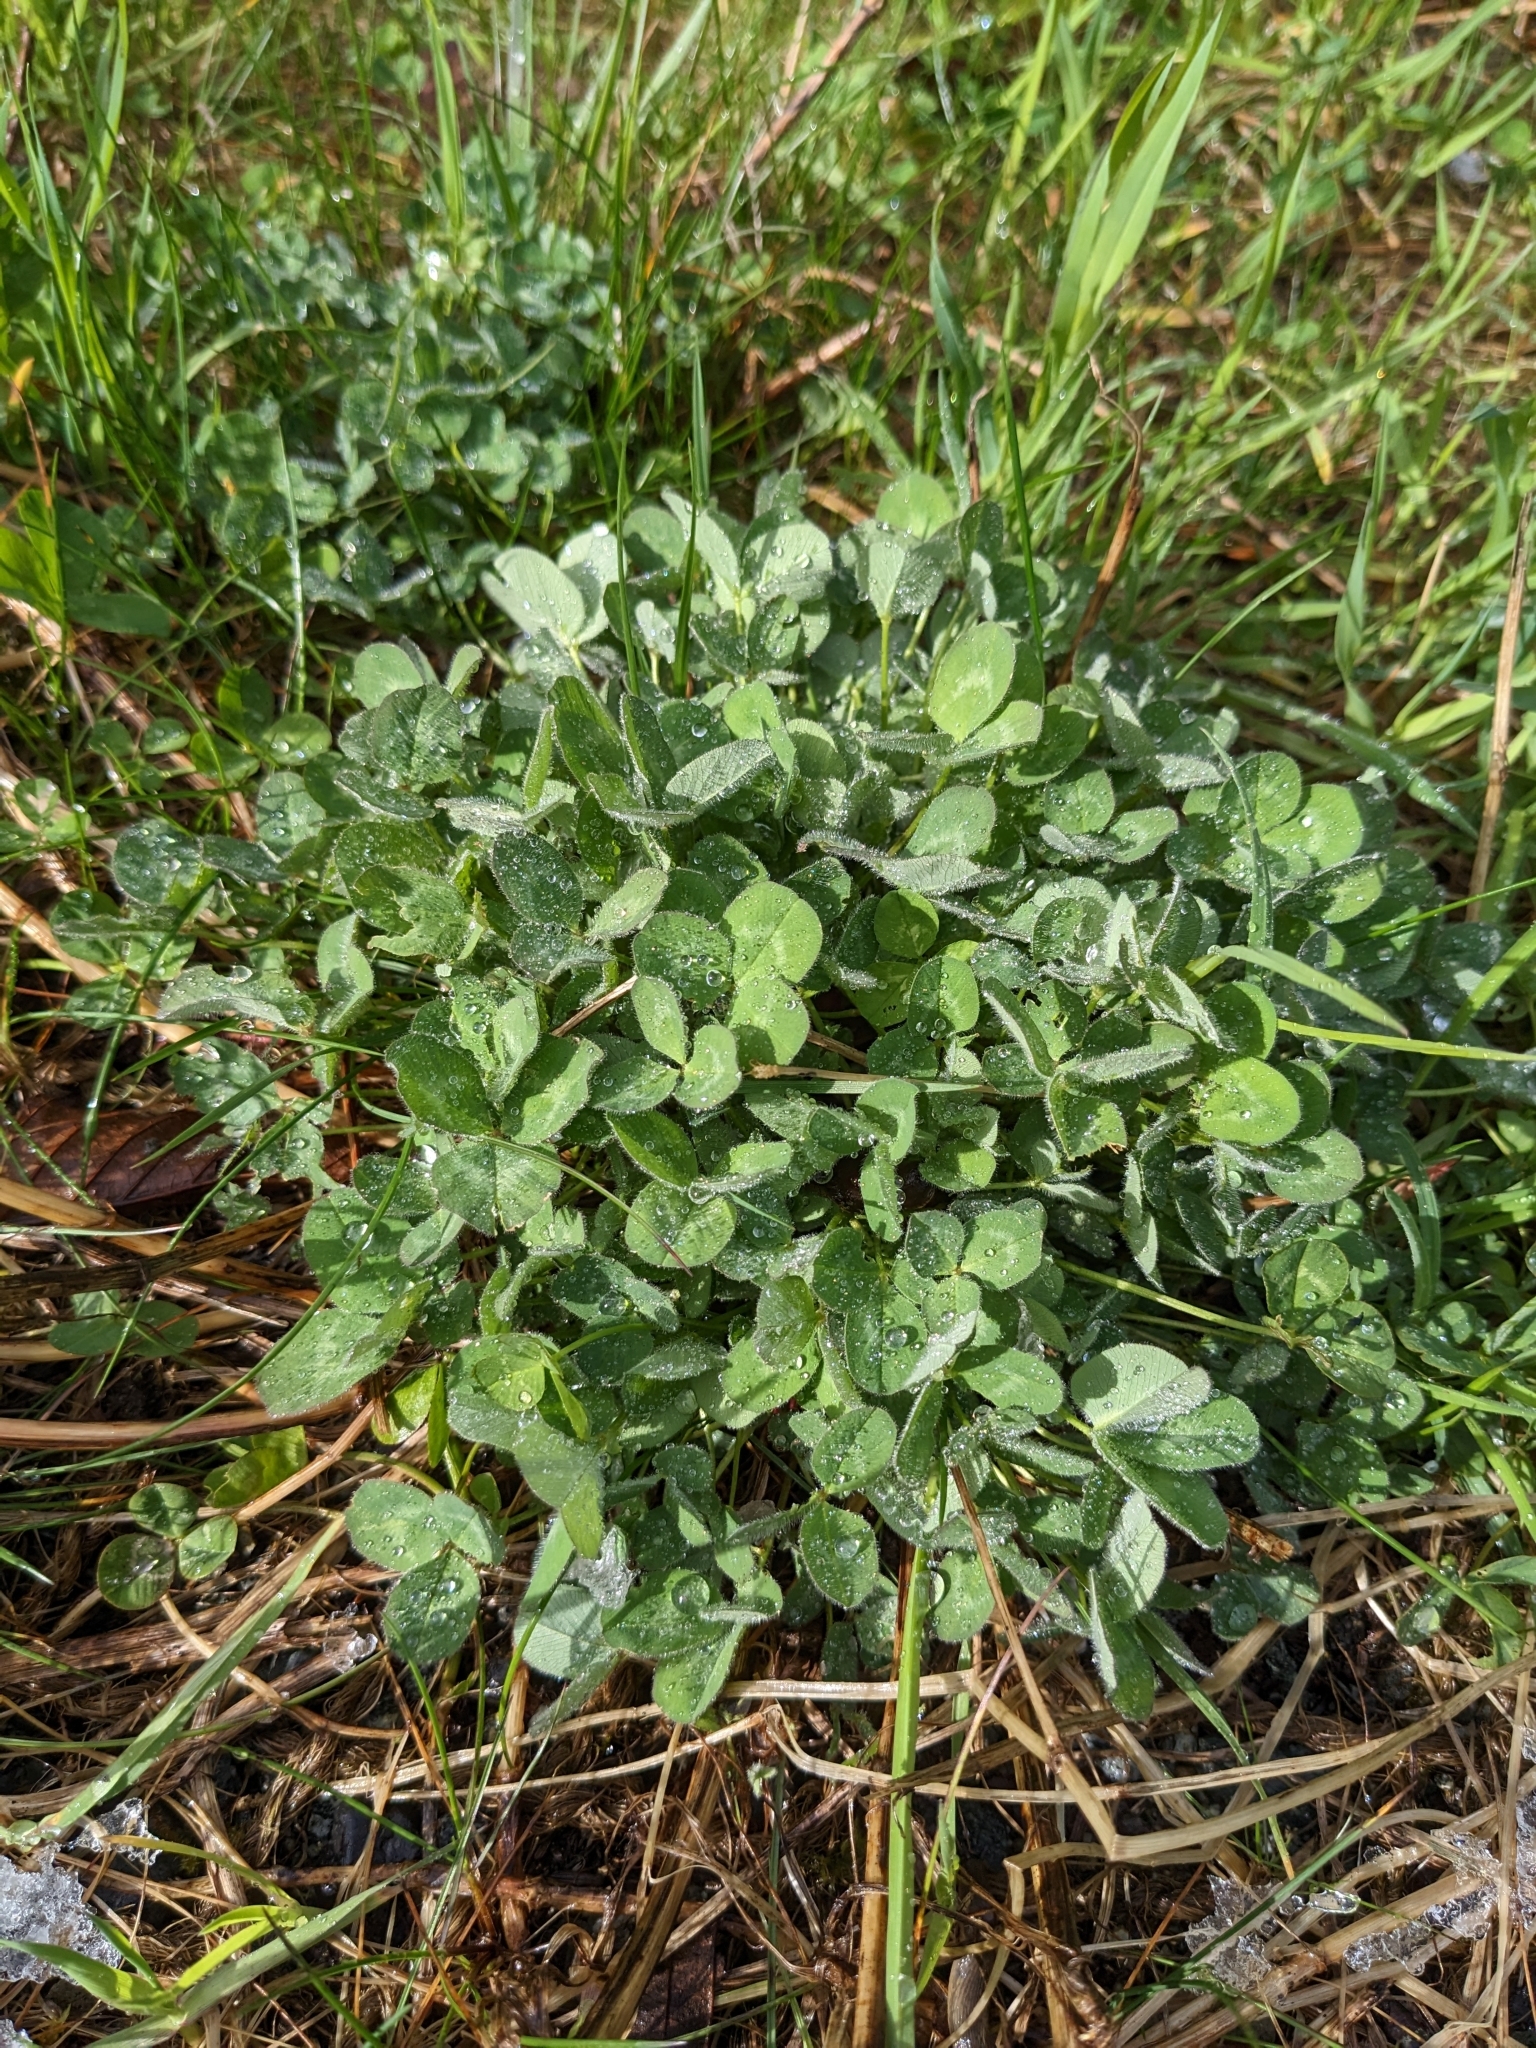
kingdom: Plantae
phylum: Tracheophyta
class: Magnoliopsida
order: Fabales
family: Fabaceae
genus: Trifolium
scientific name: Trifolium pratense
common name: Red clover
